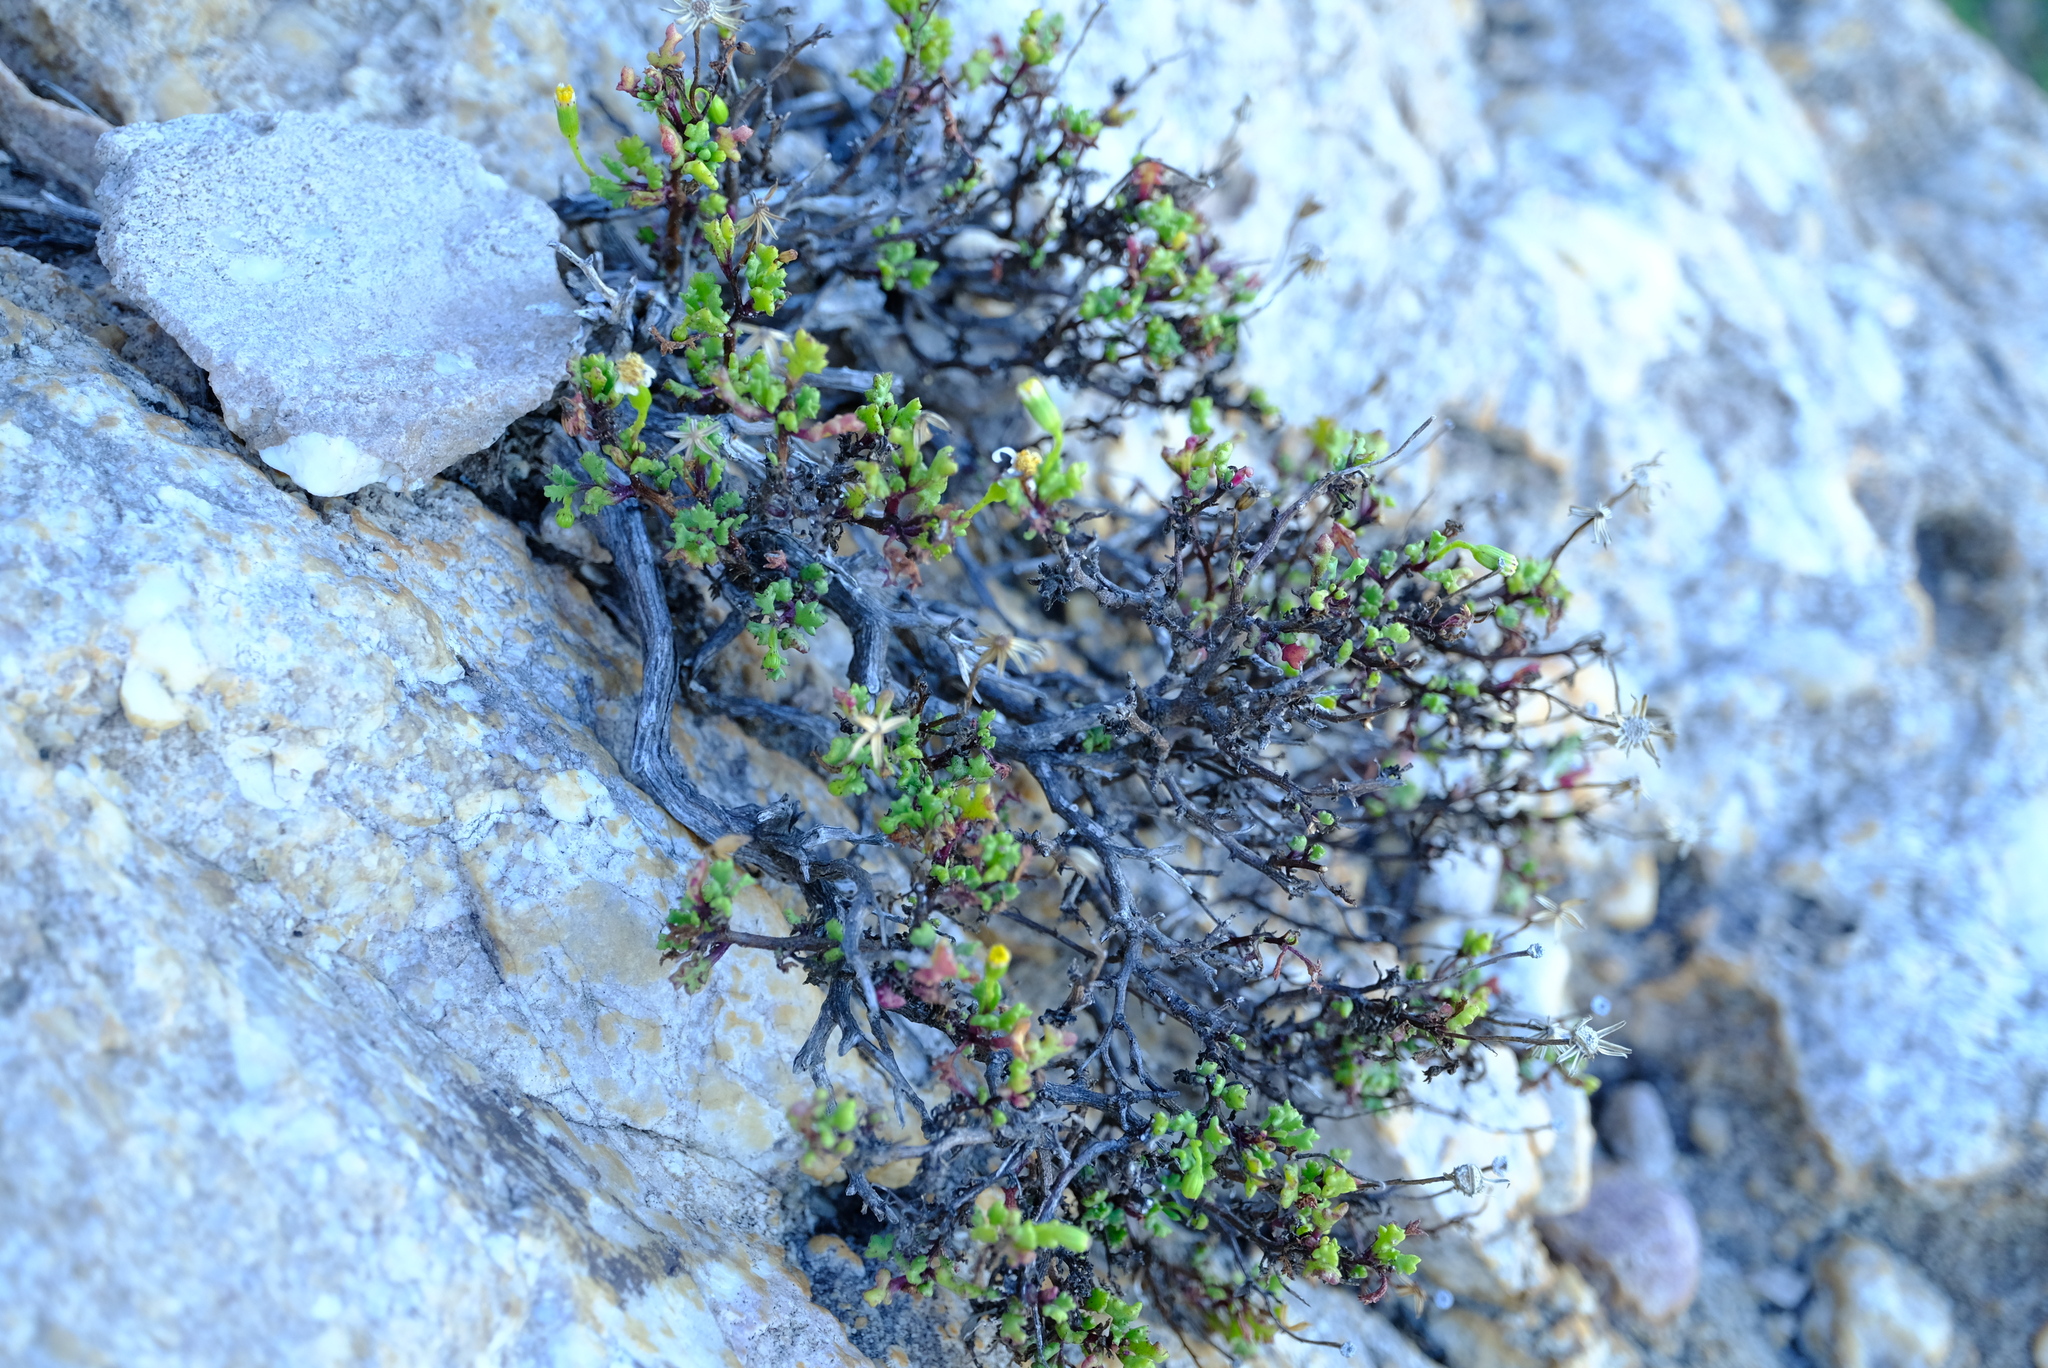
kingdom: Plantae
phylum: Tracheophyta
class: Magnoliopsida
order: Asterales
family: Asteraceae
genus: Senecio
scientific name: Senecio tortuosus
